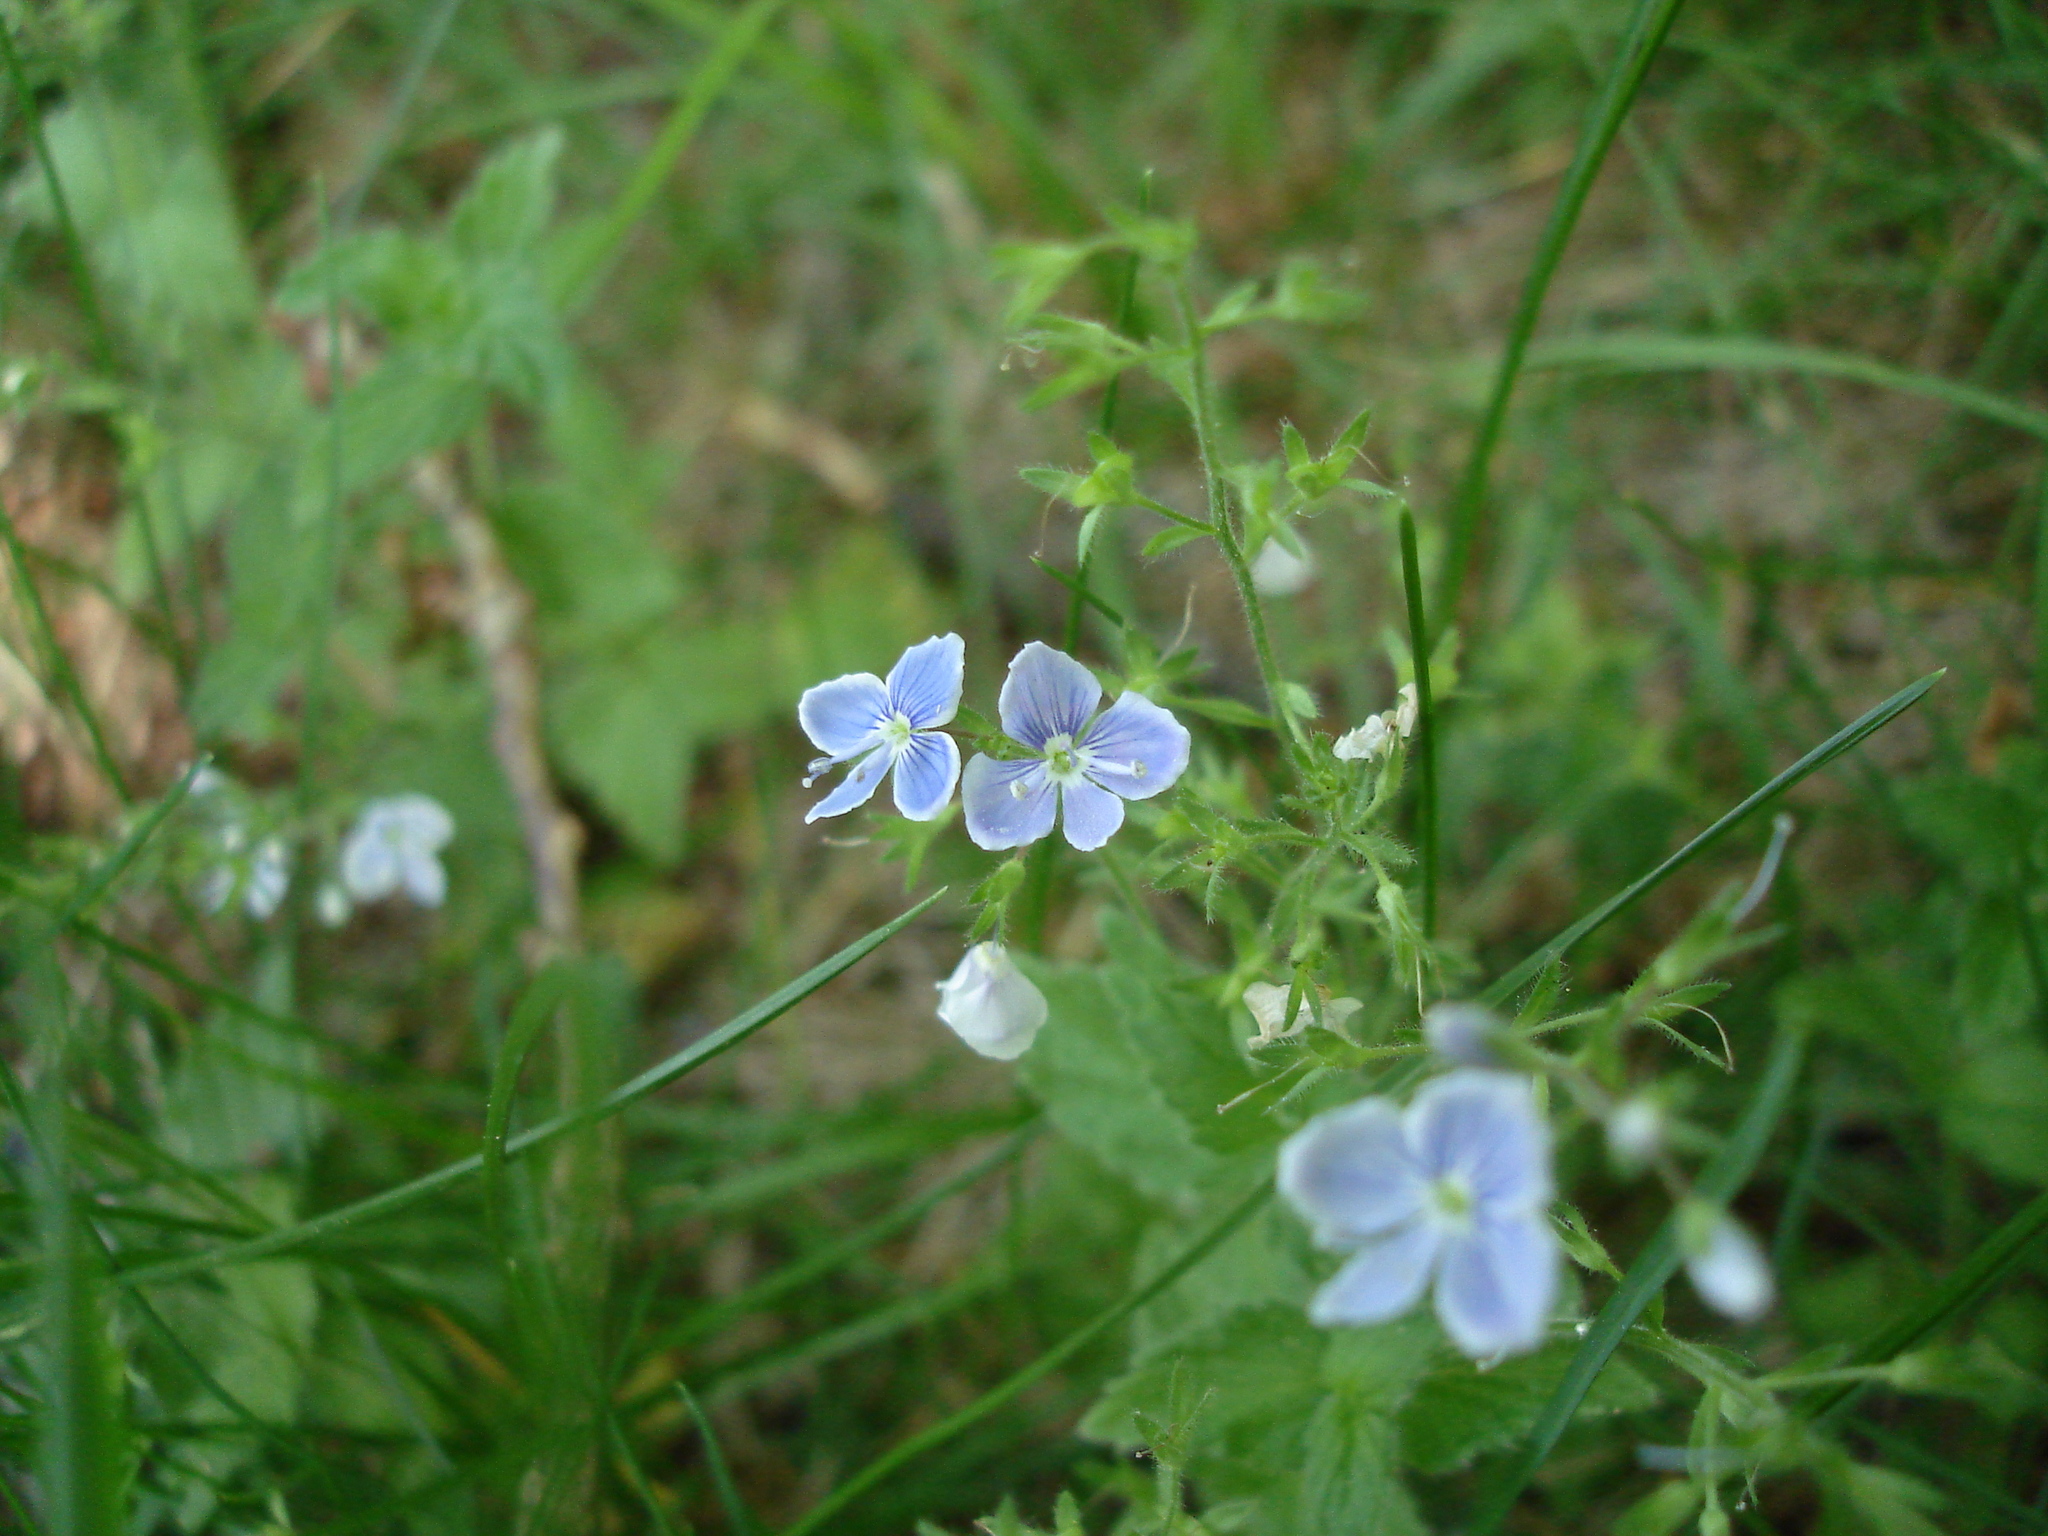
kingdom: Plantae
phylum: Tracheophyta
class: Magnoliopsida
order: Lamiales
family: Plantaginaceae
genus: Veronica
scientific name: Veronica chamaedrys
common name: Germander speedwell
